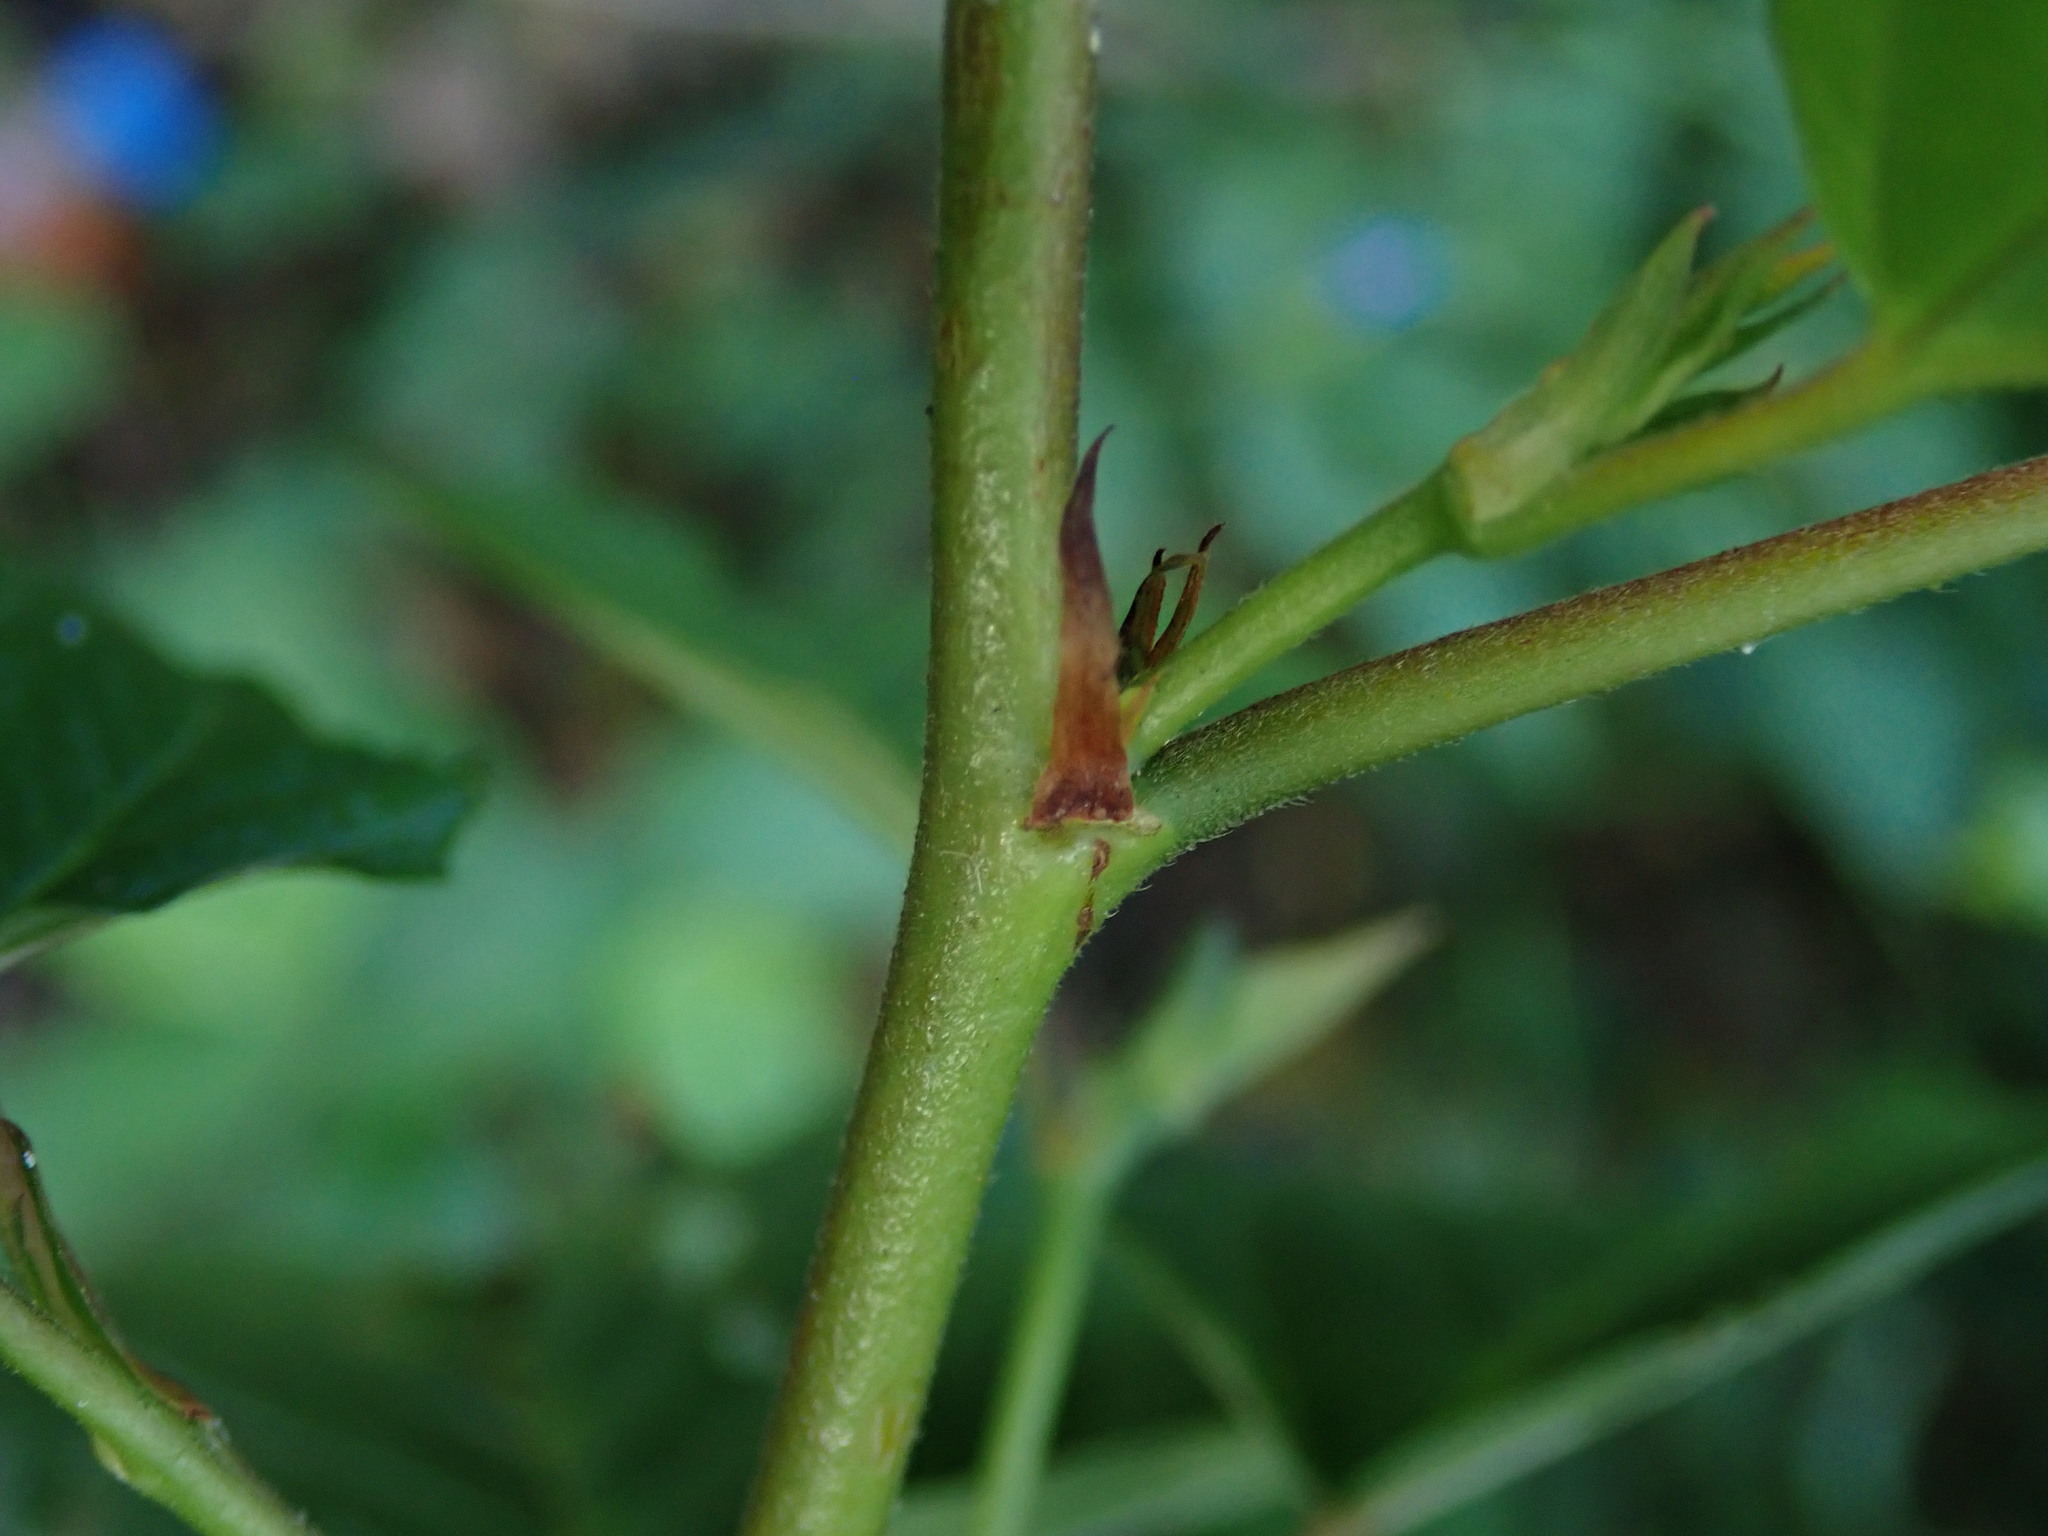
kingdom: Plantae
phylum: Tracheophyta
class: Magnoliopsida
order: Malvales
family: Malvaceae
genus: Melochia
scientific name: Melochia nodiflora
